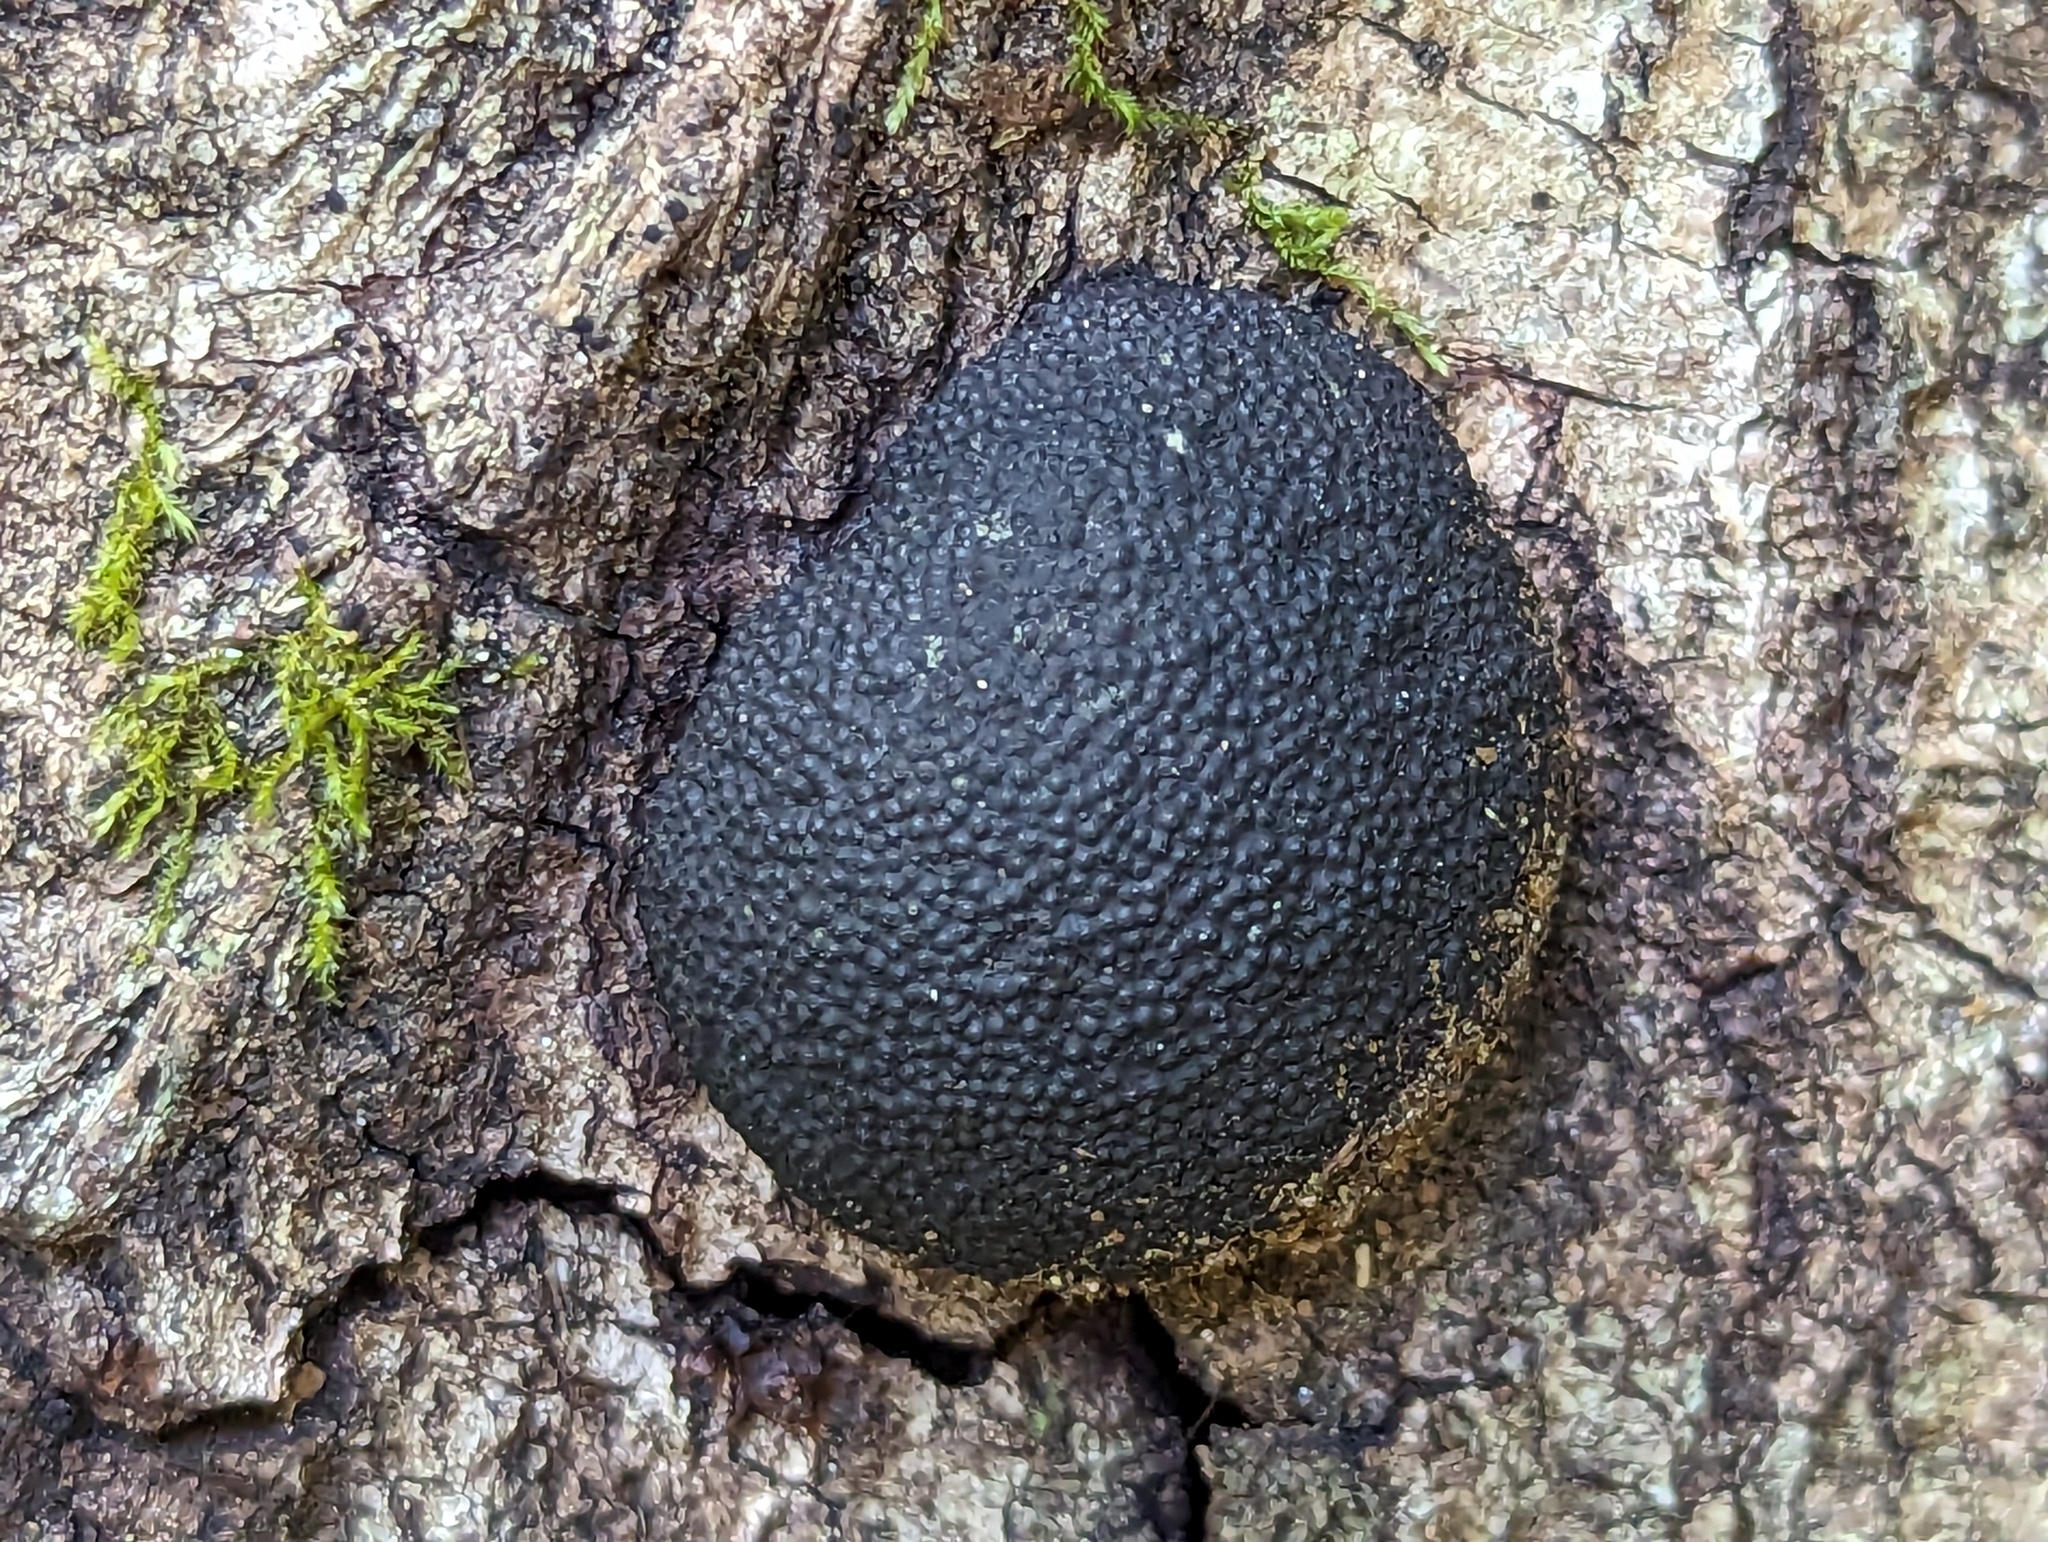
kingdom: Fungi
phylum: Ascomycota
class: Sordariomycetes
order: Xylariales
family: Hypoxylaceae
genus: Annulohypoxylon
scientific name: Annulohypoxylon thouarsianum
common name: Cramp balls
